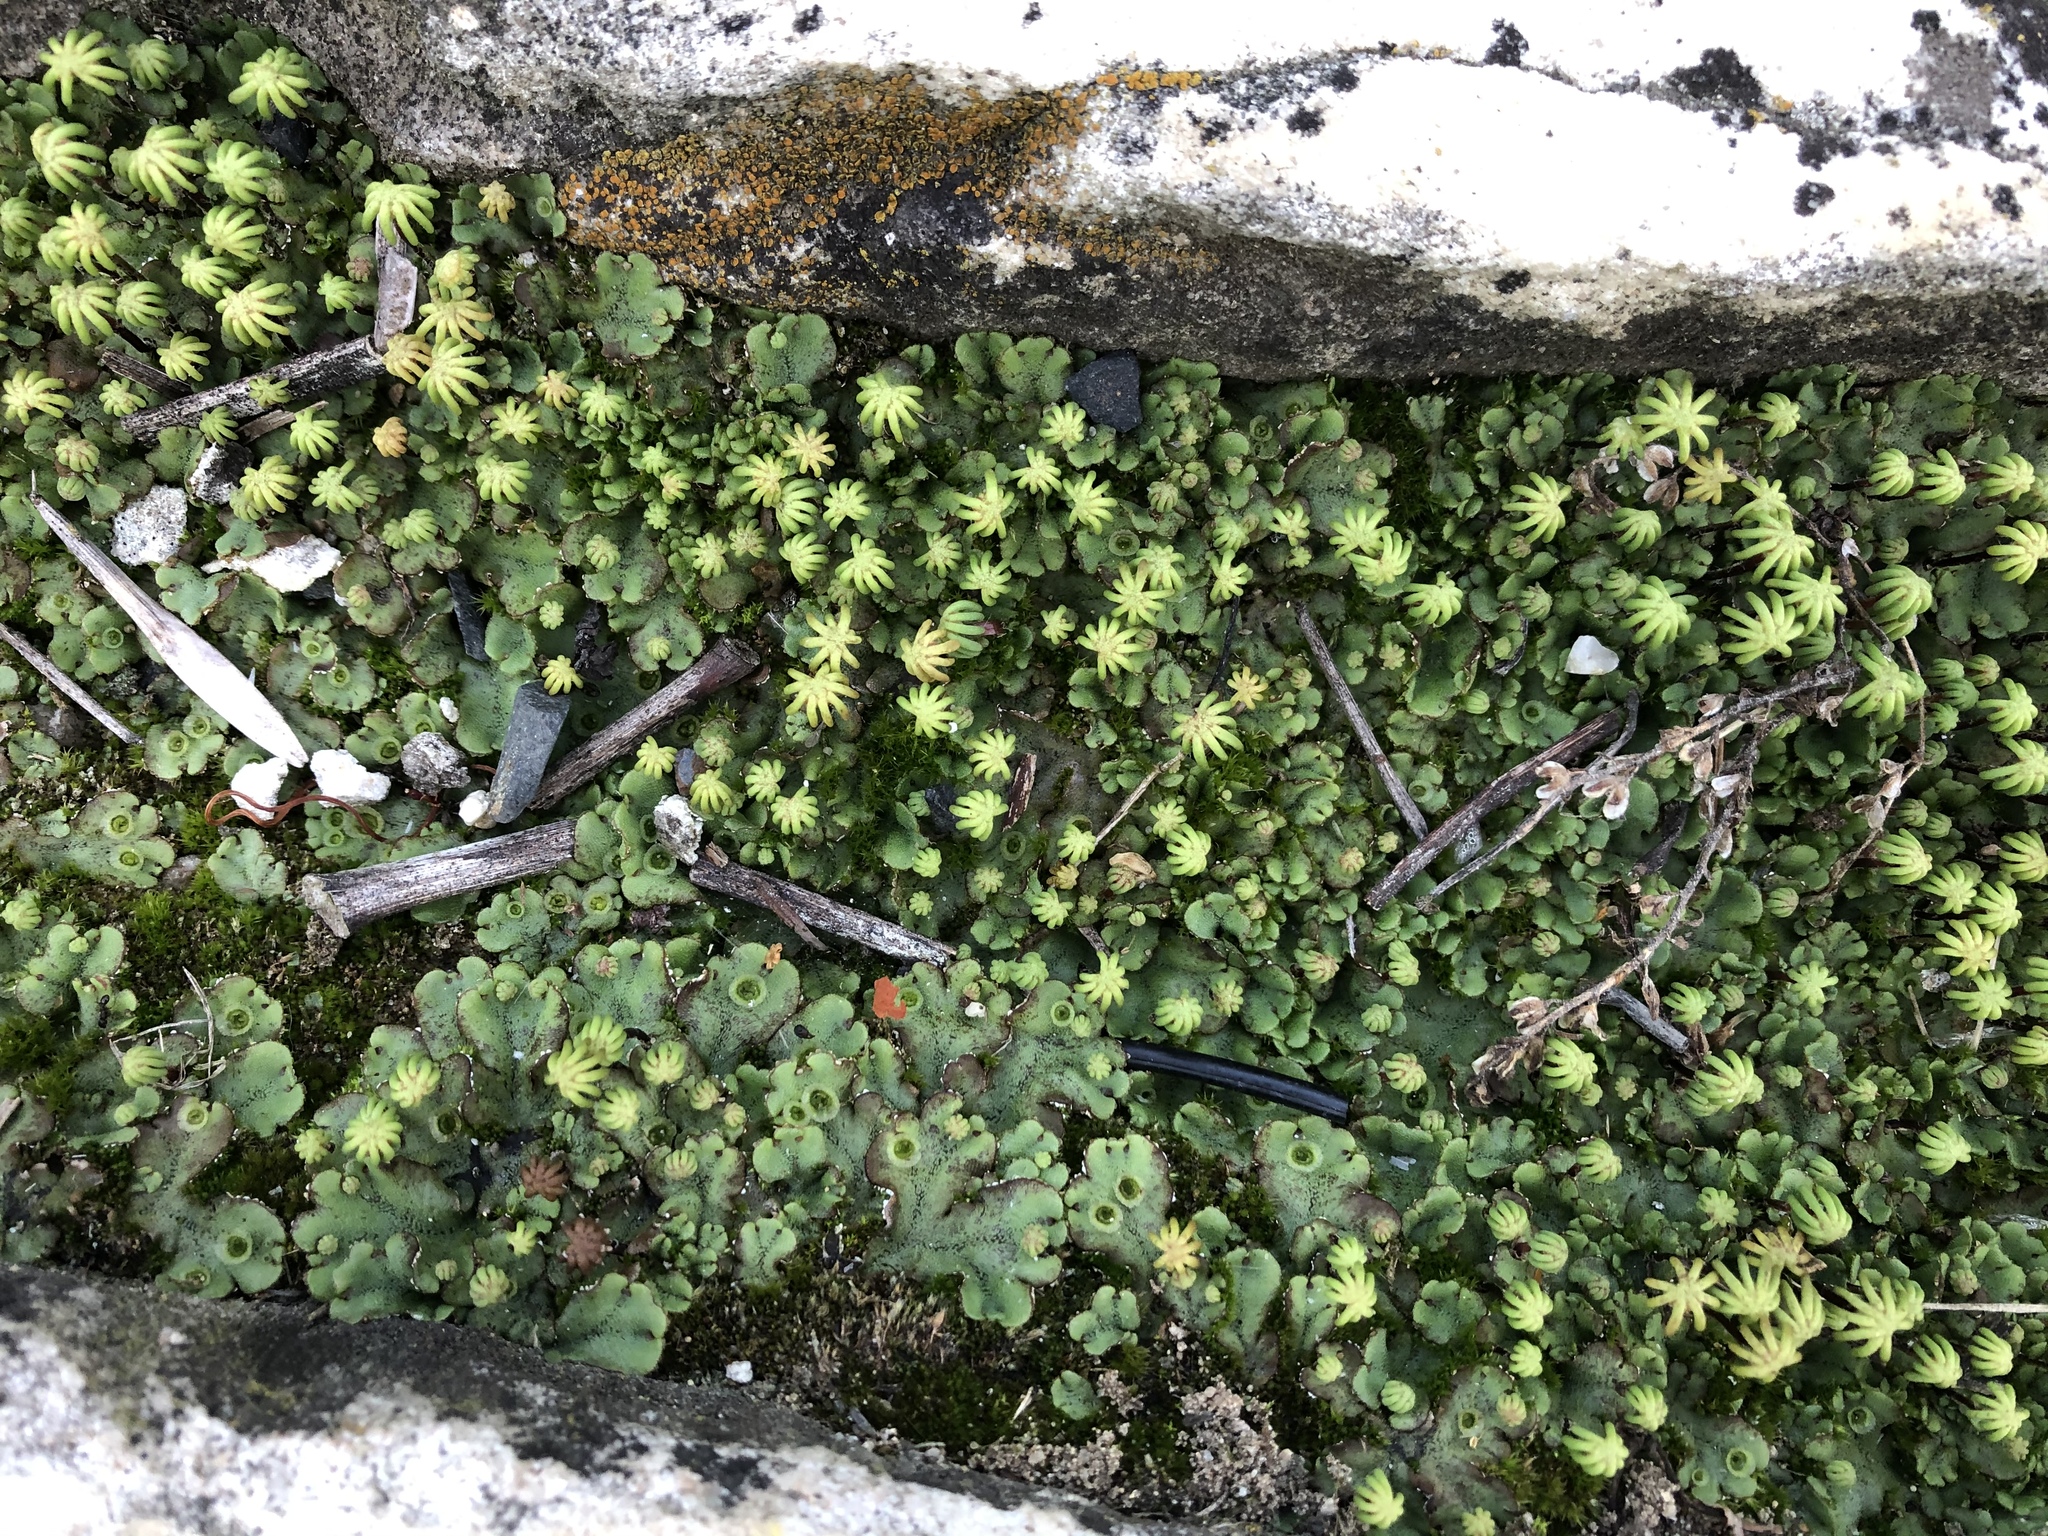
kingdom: Plantae
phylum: Marchantiophyta
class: Marchantiopsida
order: Marchantiales
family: Marchantiaceae
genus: Marchantia
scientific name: Marchantia polymorpha
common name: Common liverwort
